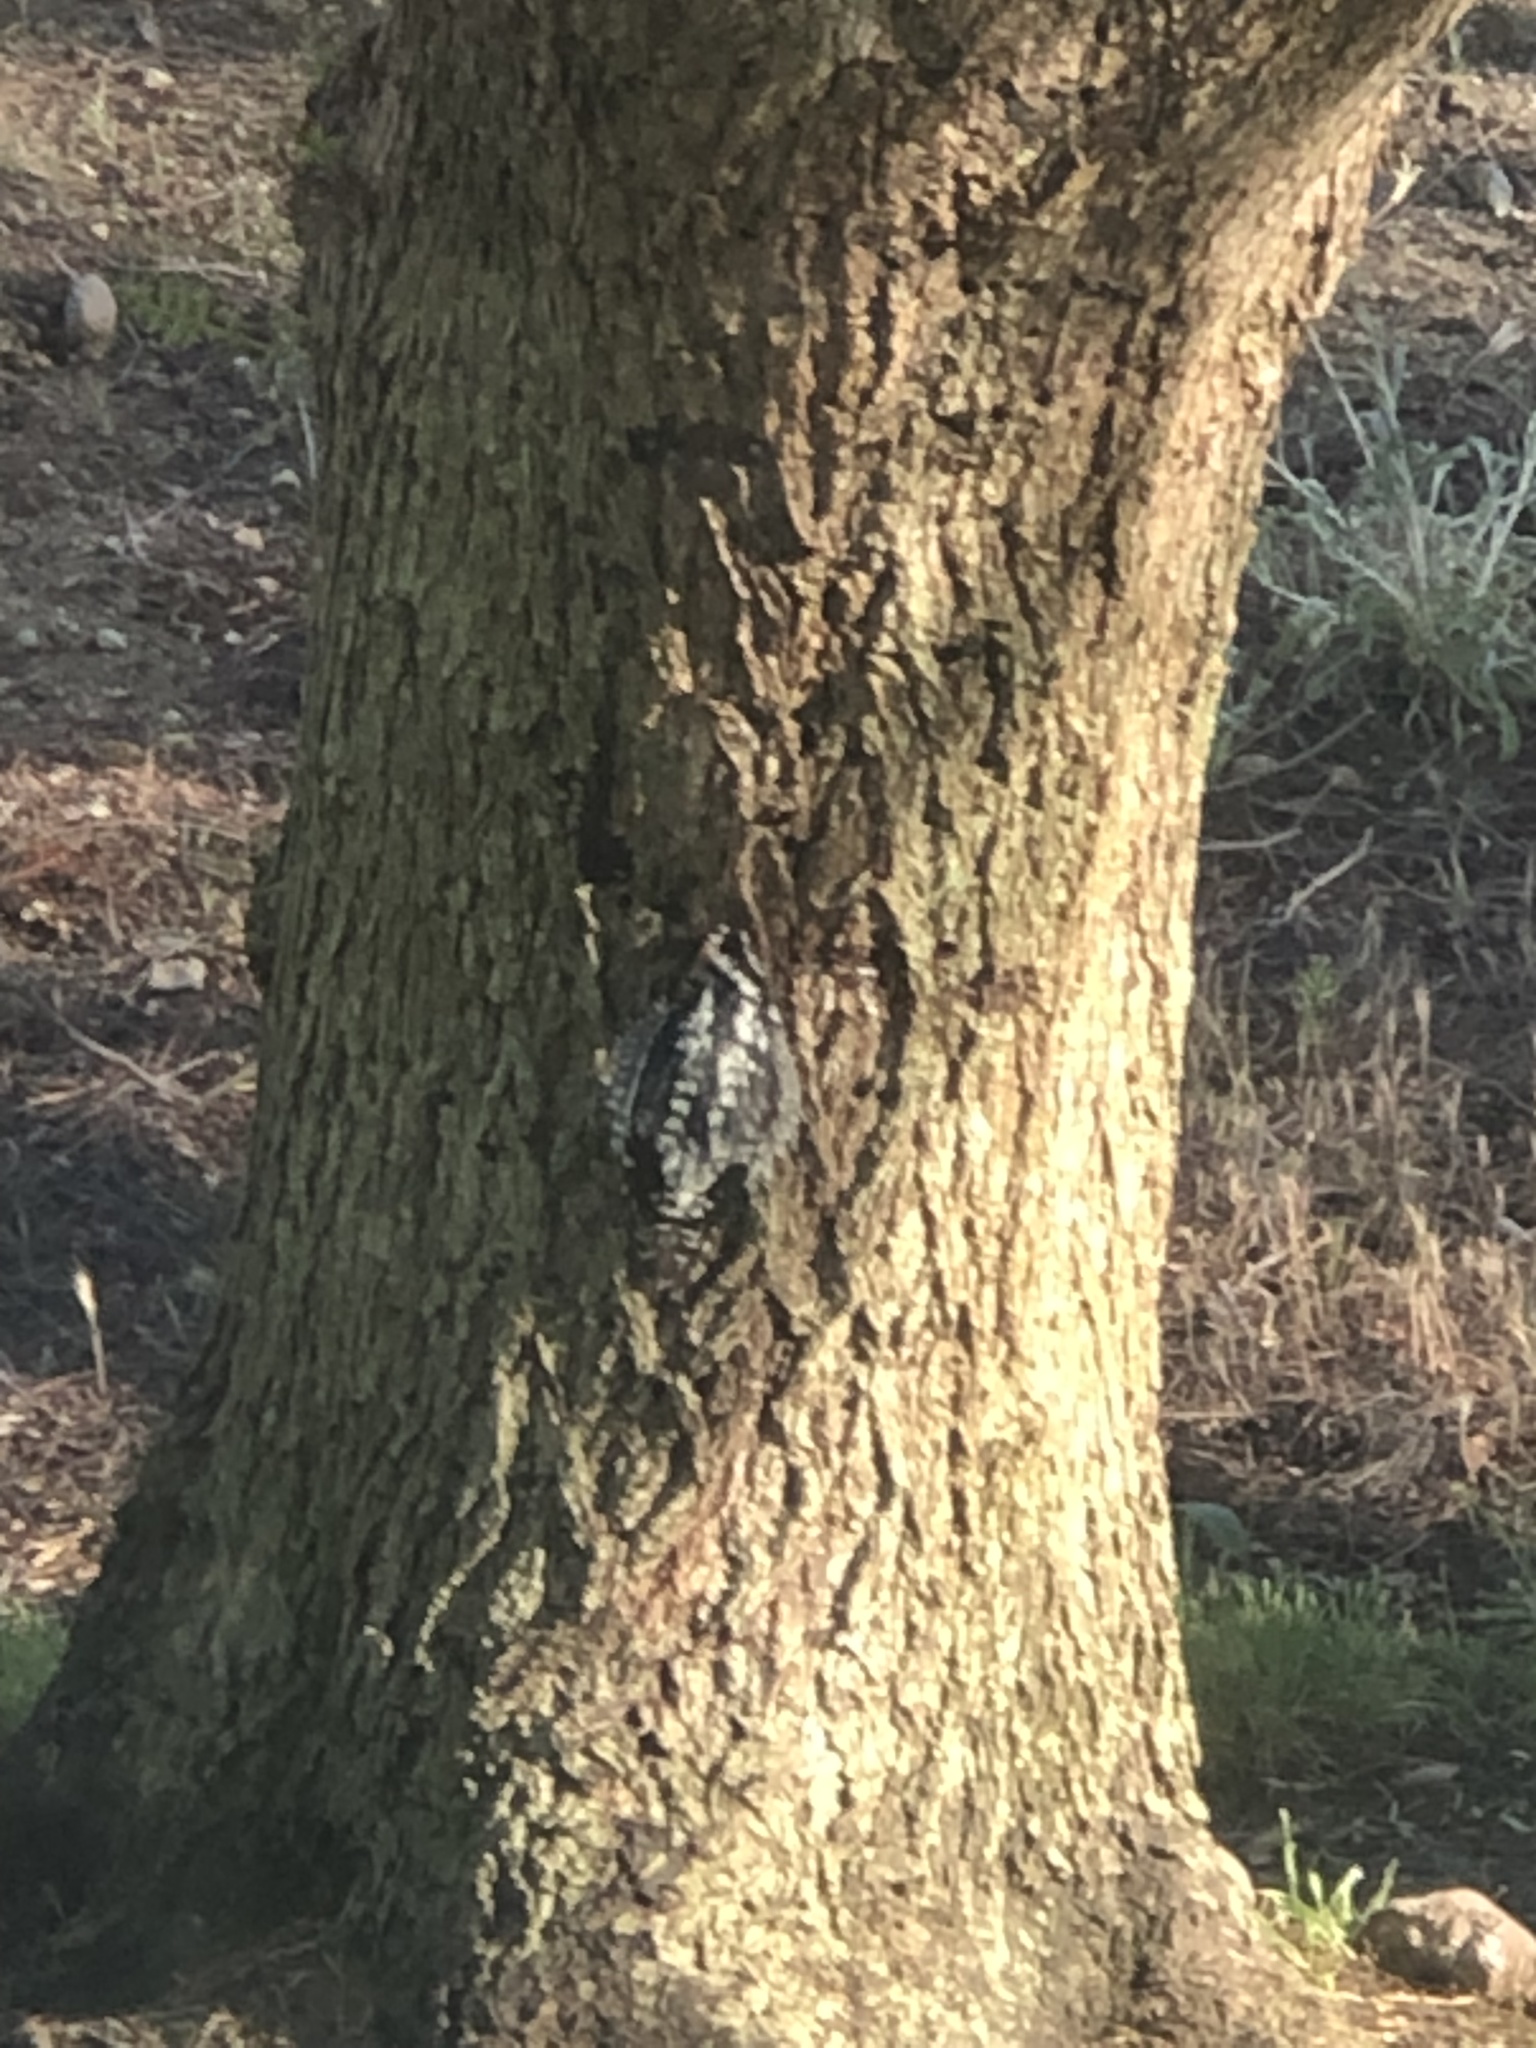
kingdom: Animalia
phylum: Chordata
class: Aves
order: Piciformes
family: Picidae
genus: Sphyrapicus
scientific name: Sphyrapicus nuchalis
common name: Red-naped sapsucker
